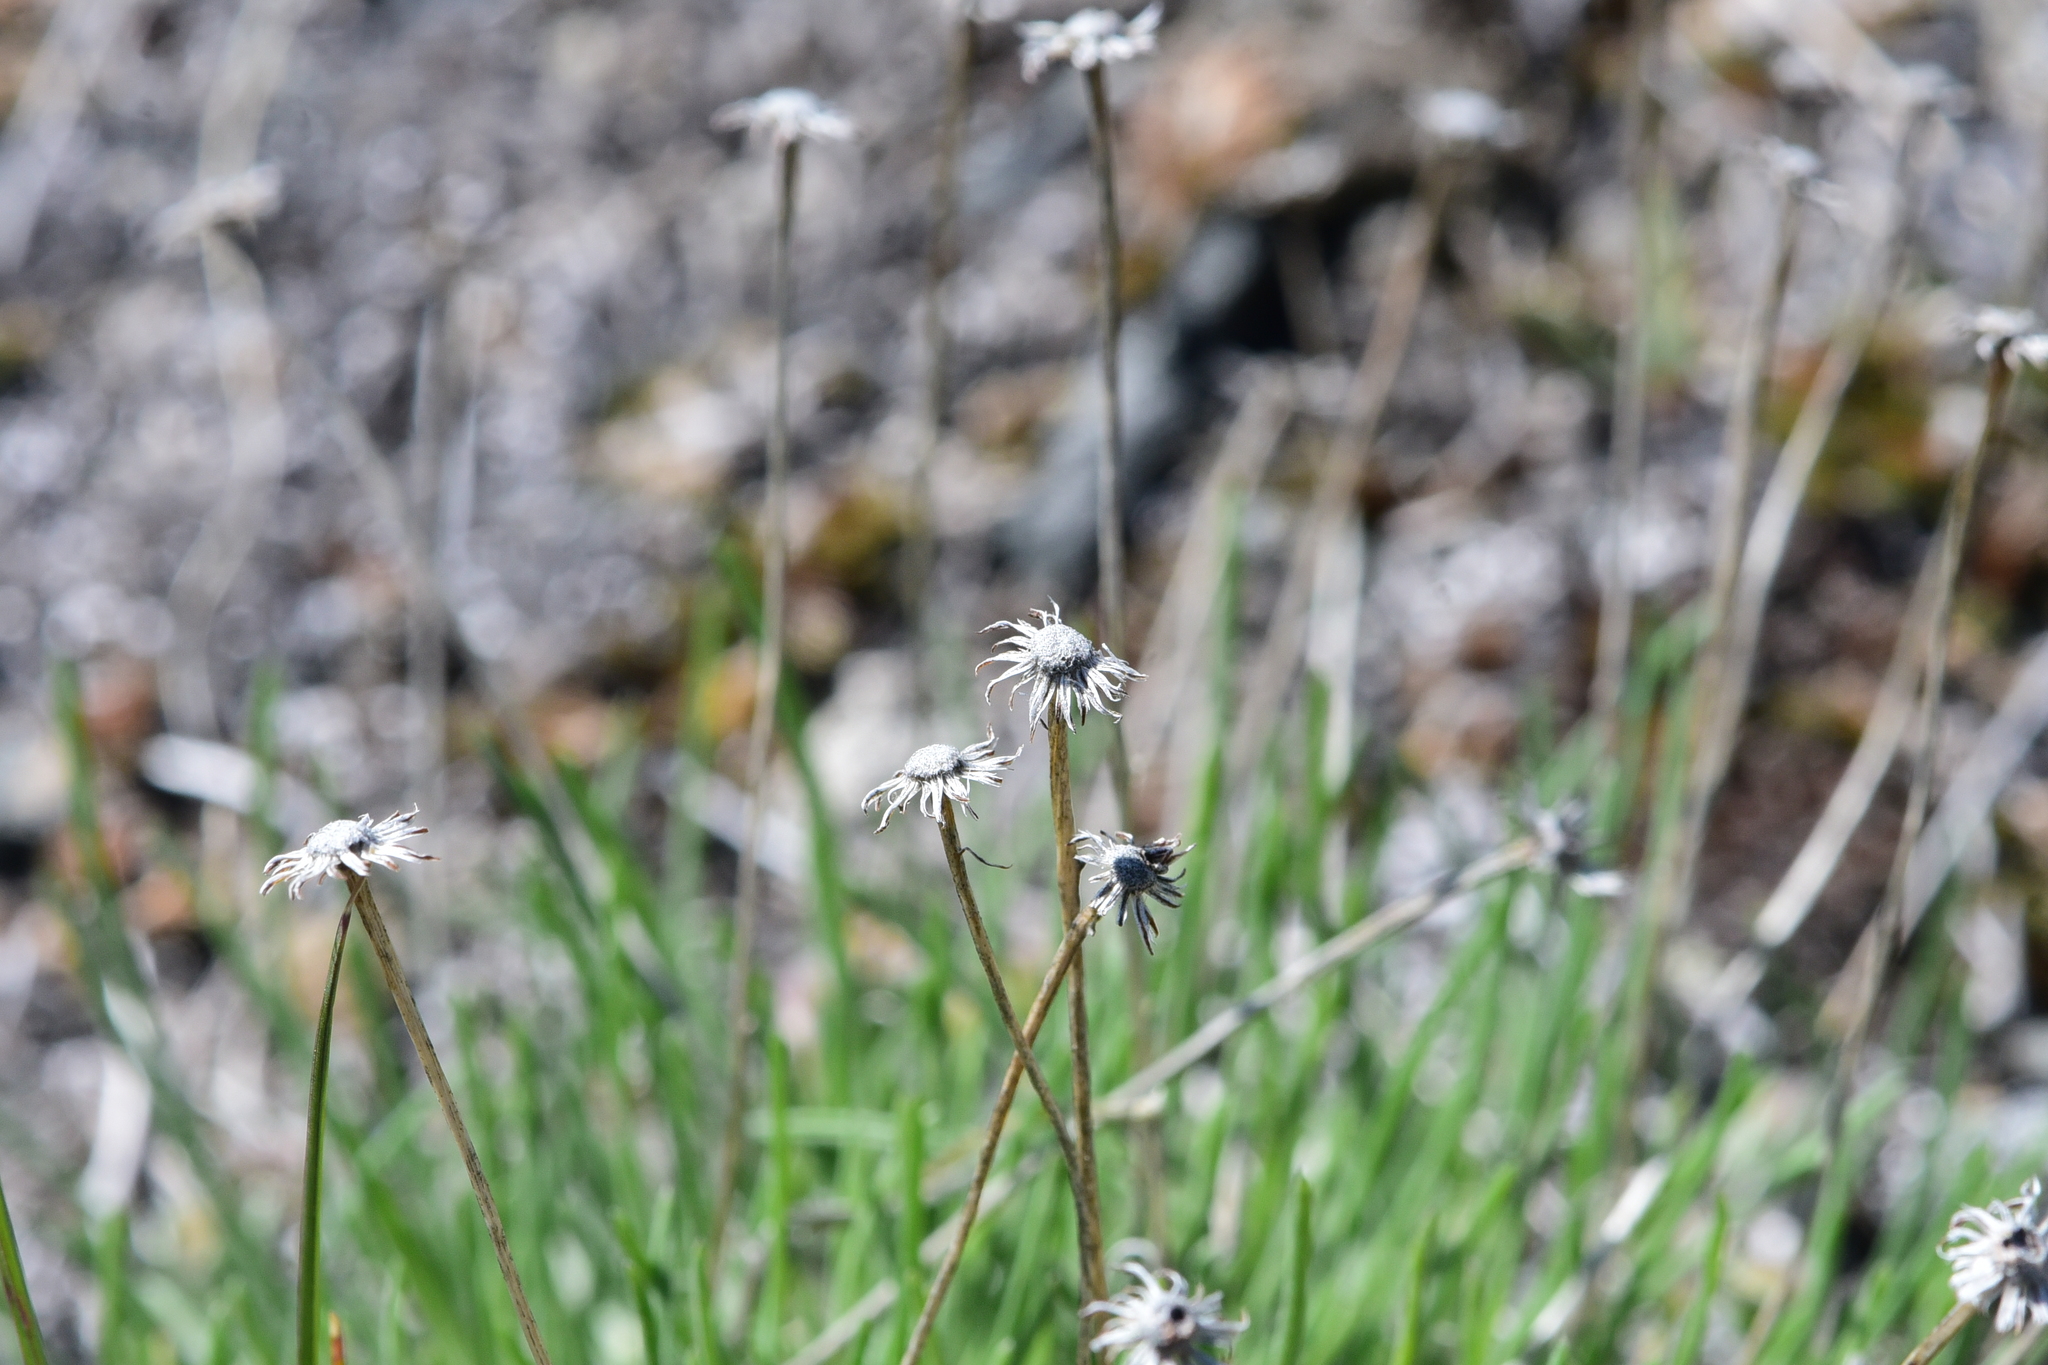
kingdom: Plantae
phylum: Tracheophyta
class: Magnoliopsida
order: Asterales
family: Asteraceae
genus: Erigeron
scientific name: Erigeron linearis
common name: Desert yellow fleabane
